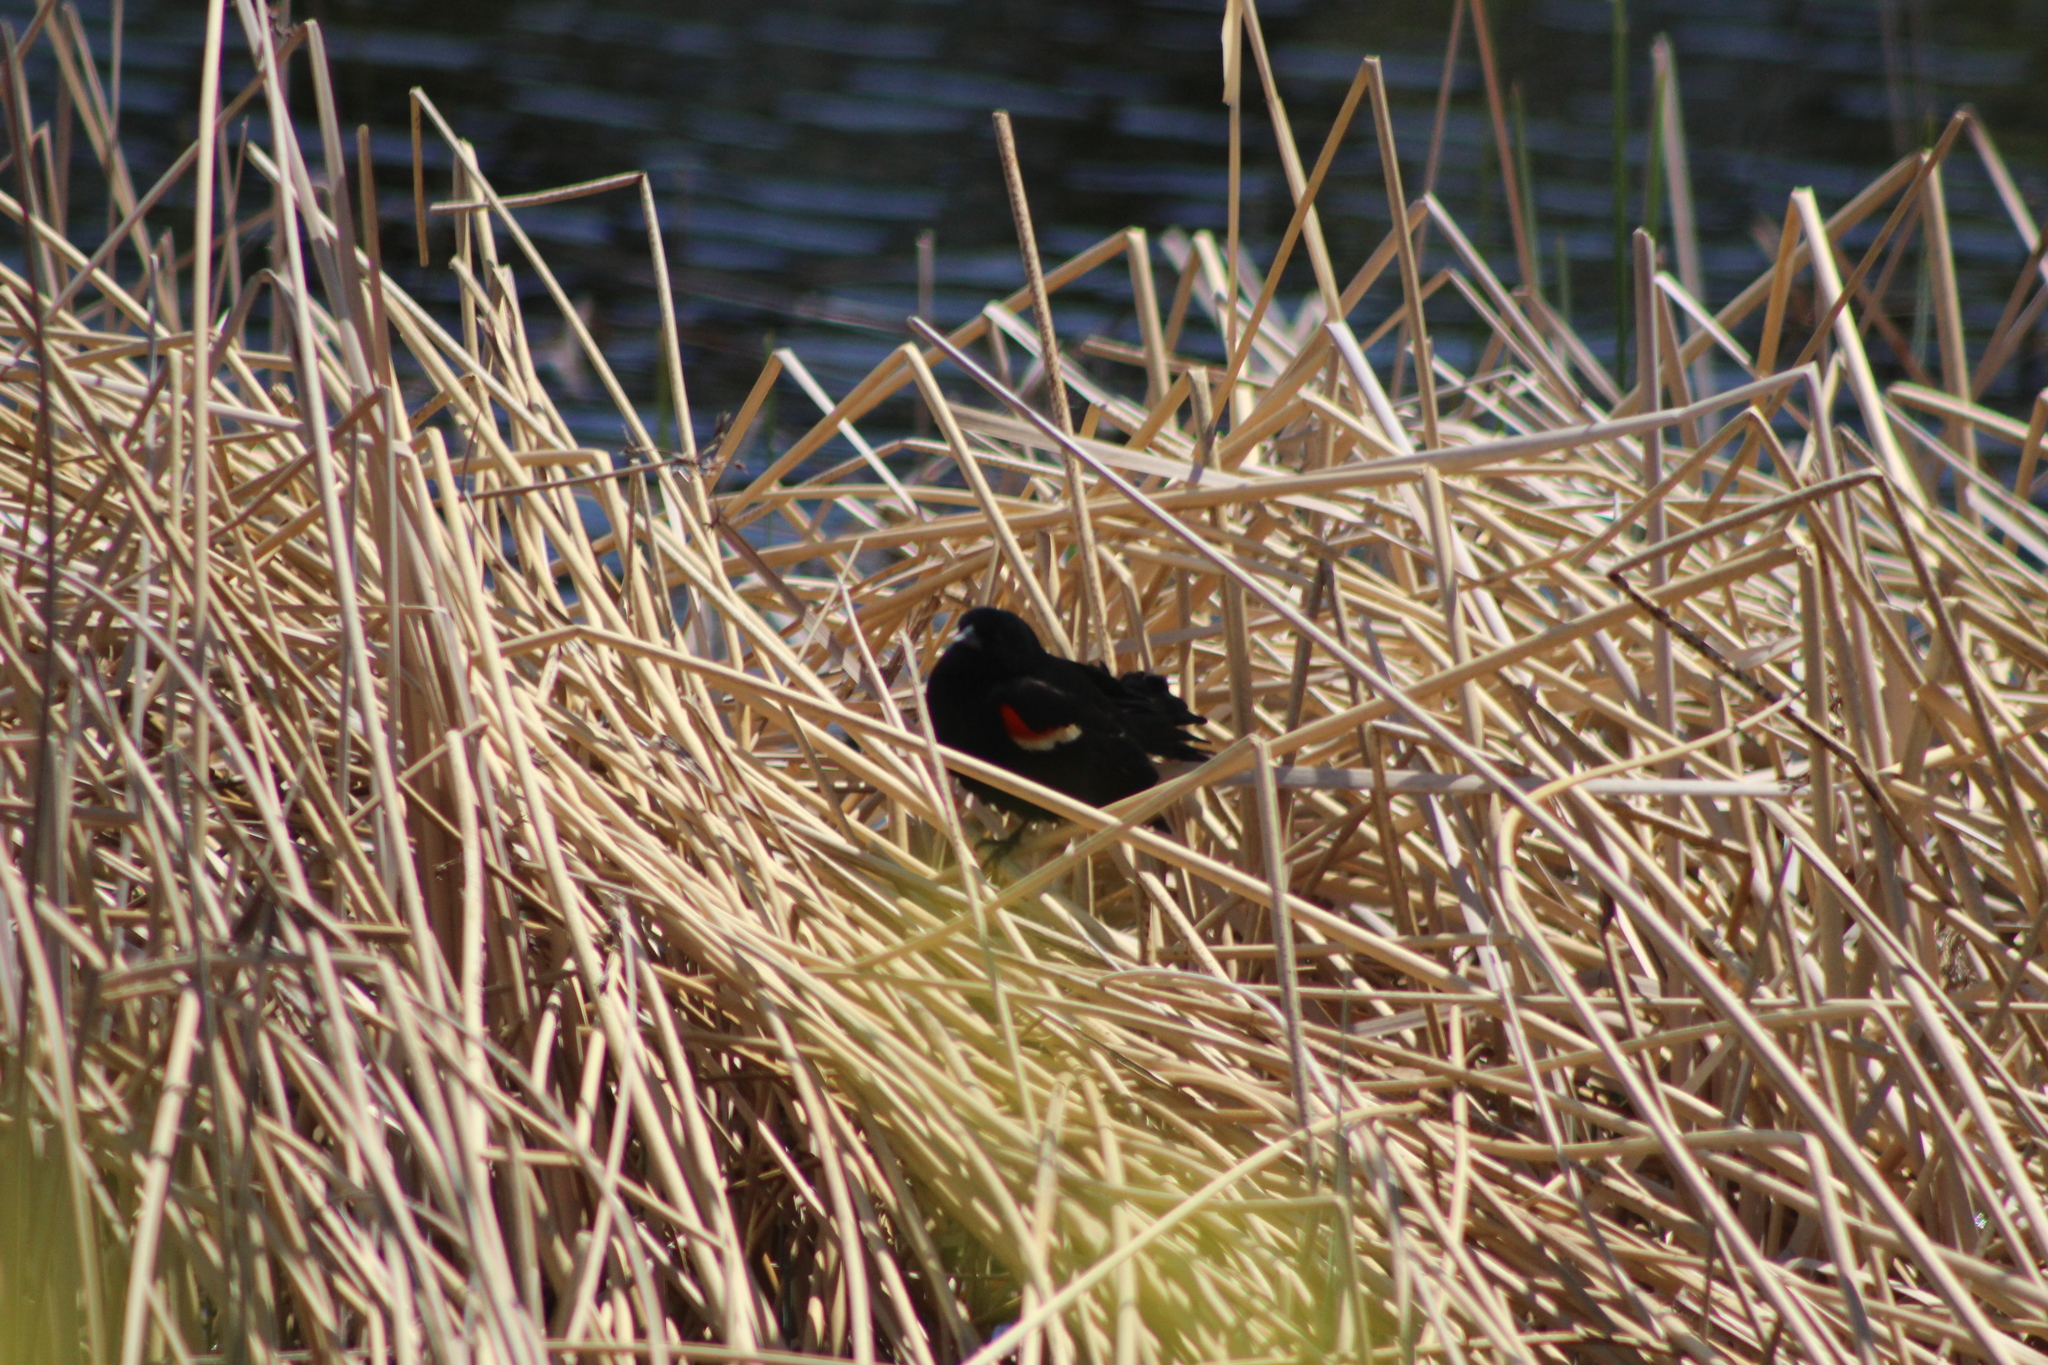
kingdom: Animalia
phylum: Chordata
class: Aves
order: Passeriformes
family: Icteridae
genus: Agelaius
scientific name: Agelaius phoeniceus
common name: Red-winged blackbird
